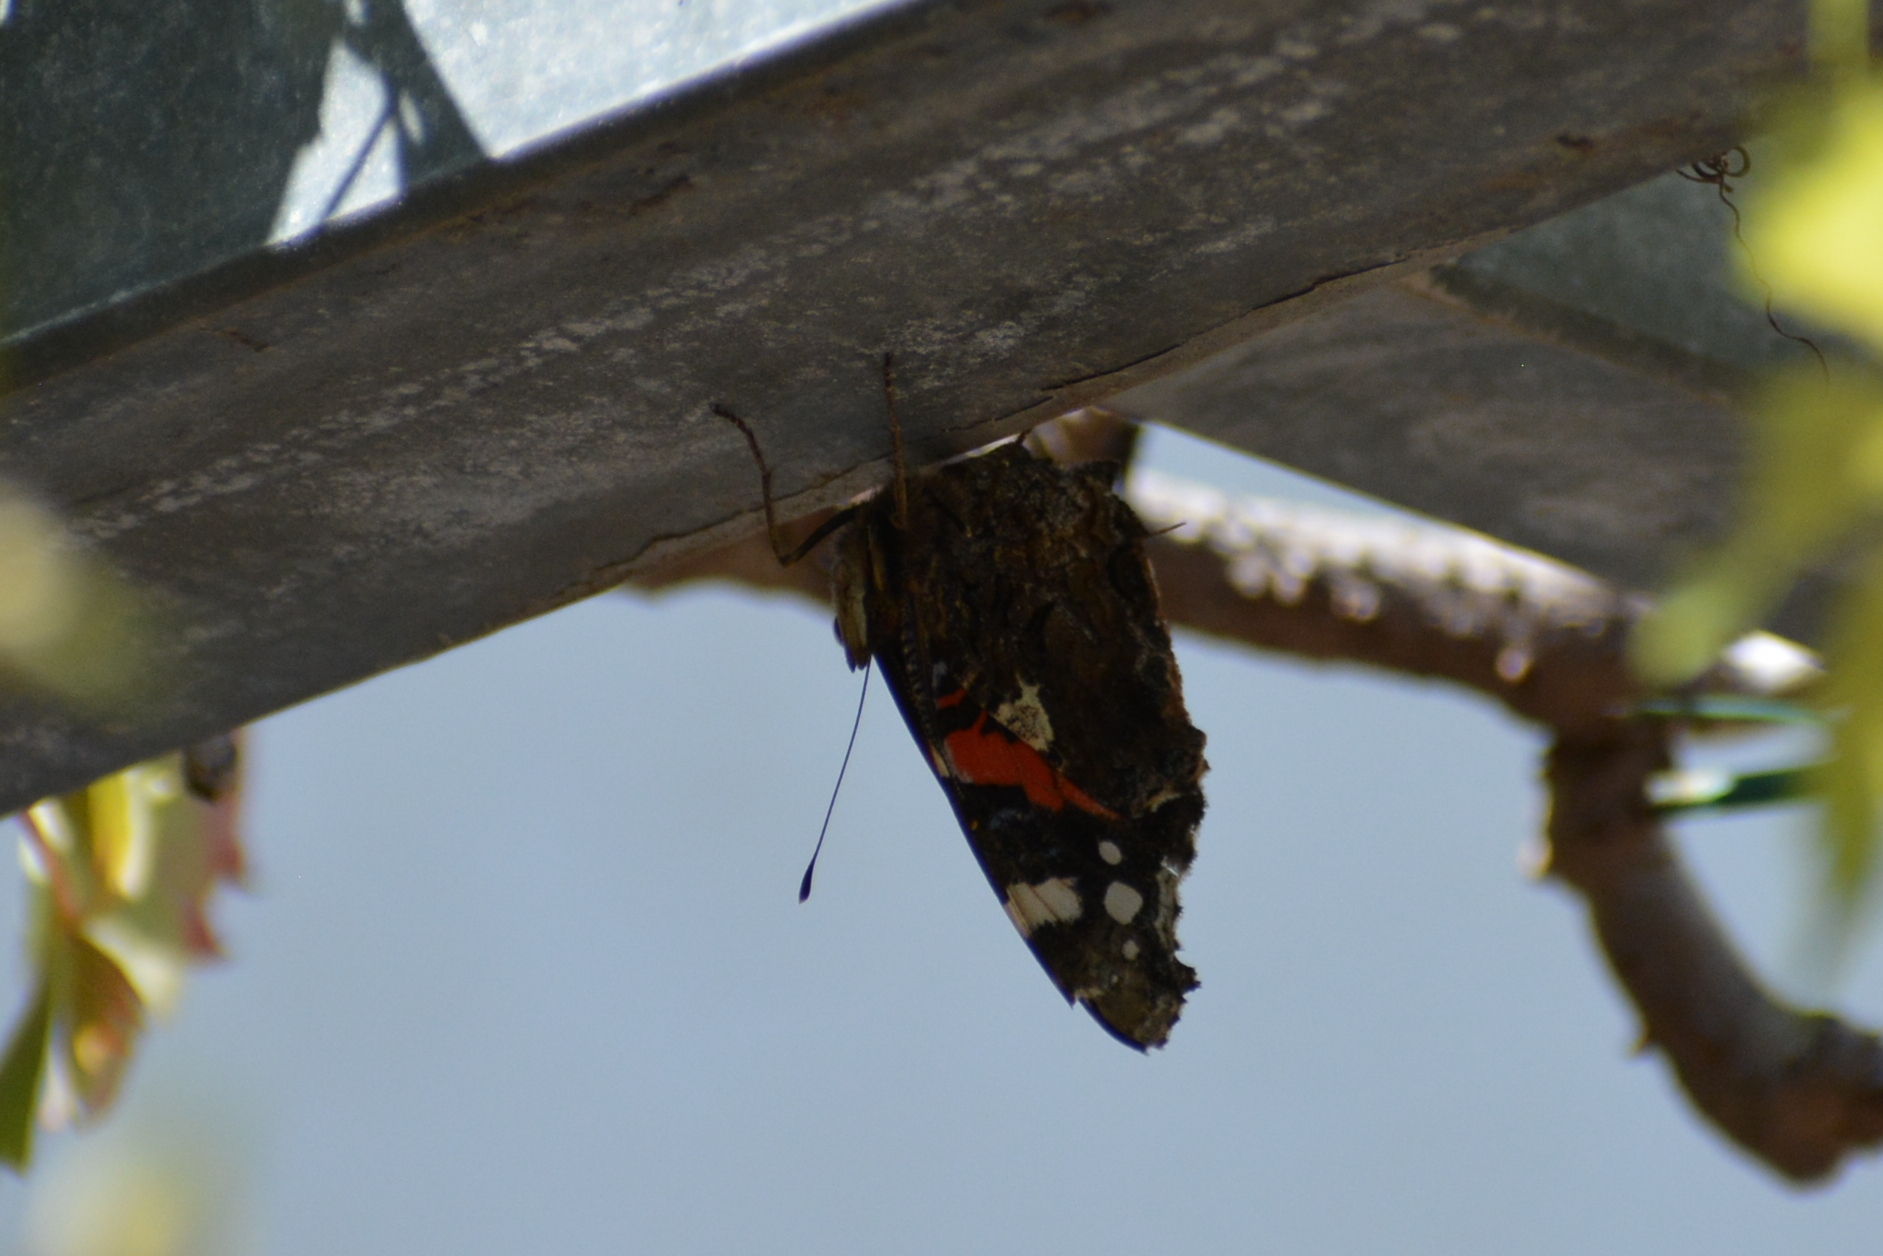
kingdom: Animalia
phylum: Arthropoda
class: Insecta
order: Lepidoptera
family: Nymphalidae
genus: Vanessa
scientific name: Vanessa atalanta
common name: Red admiral
